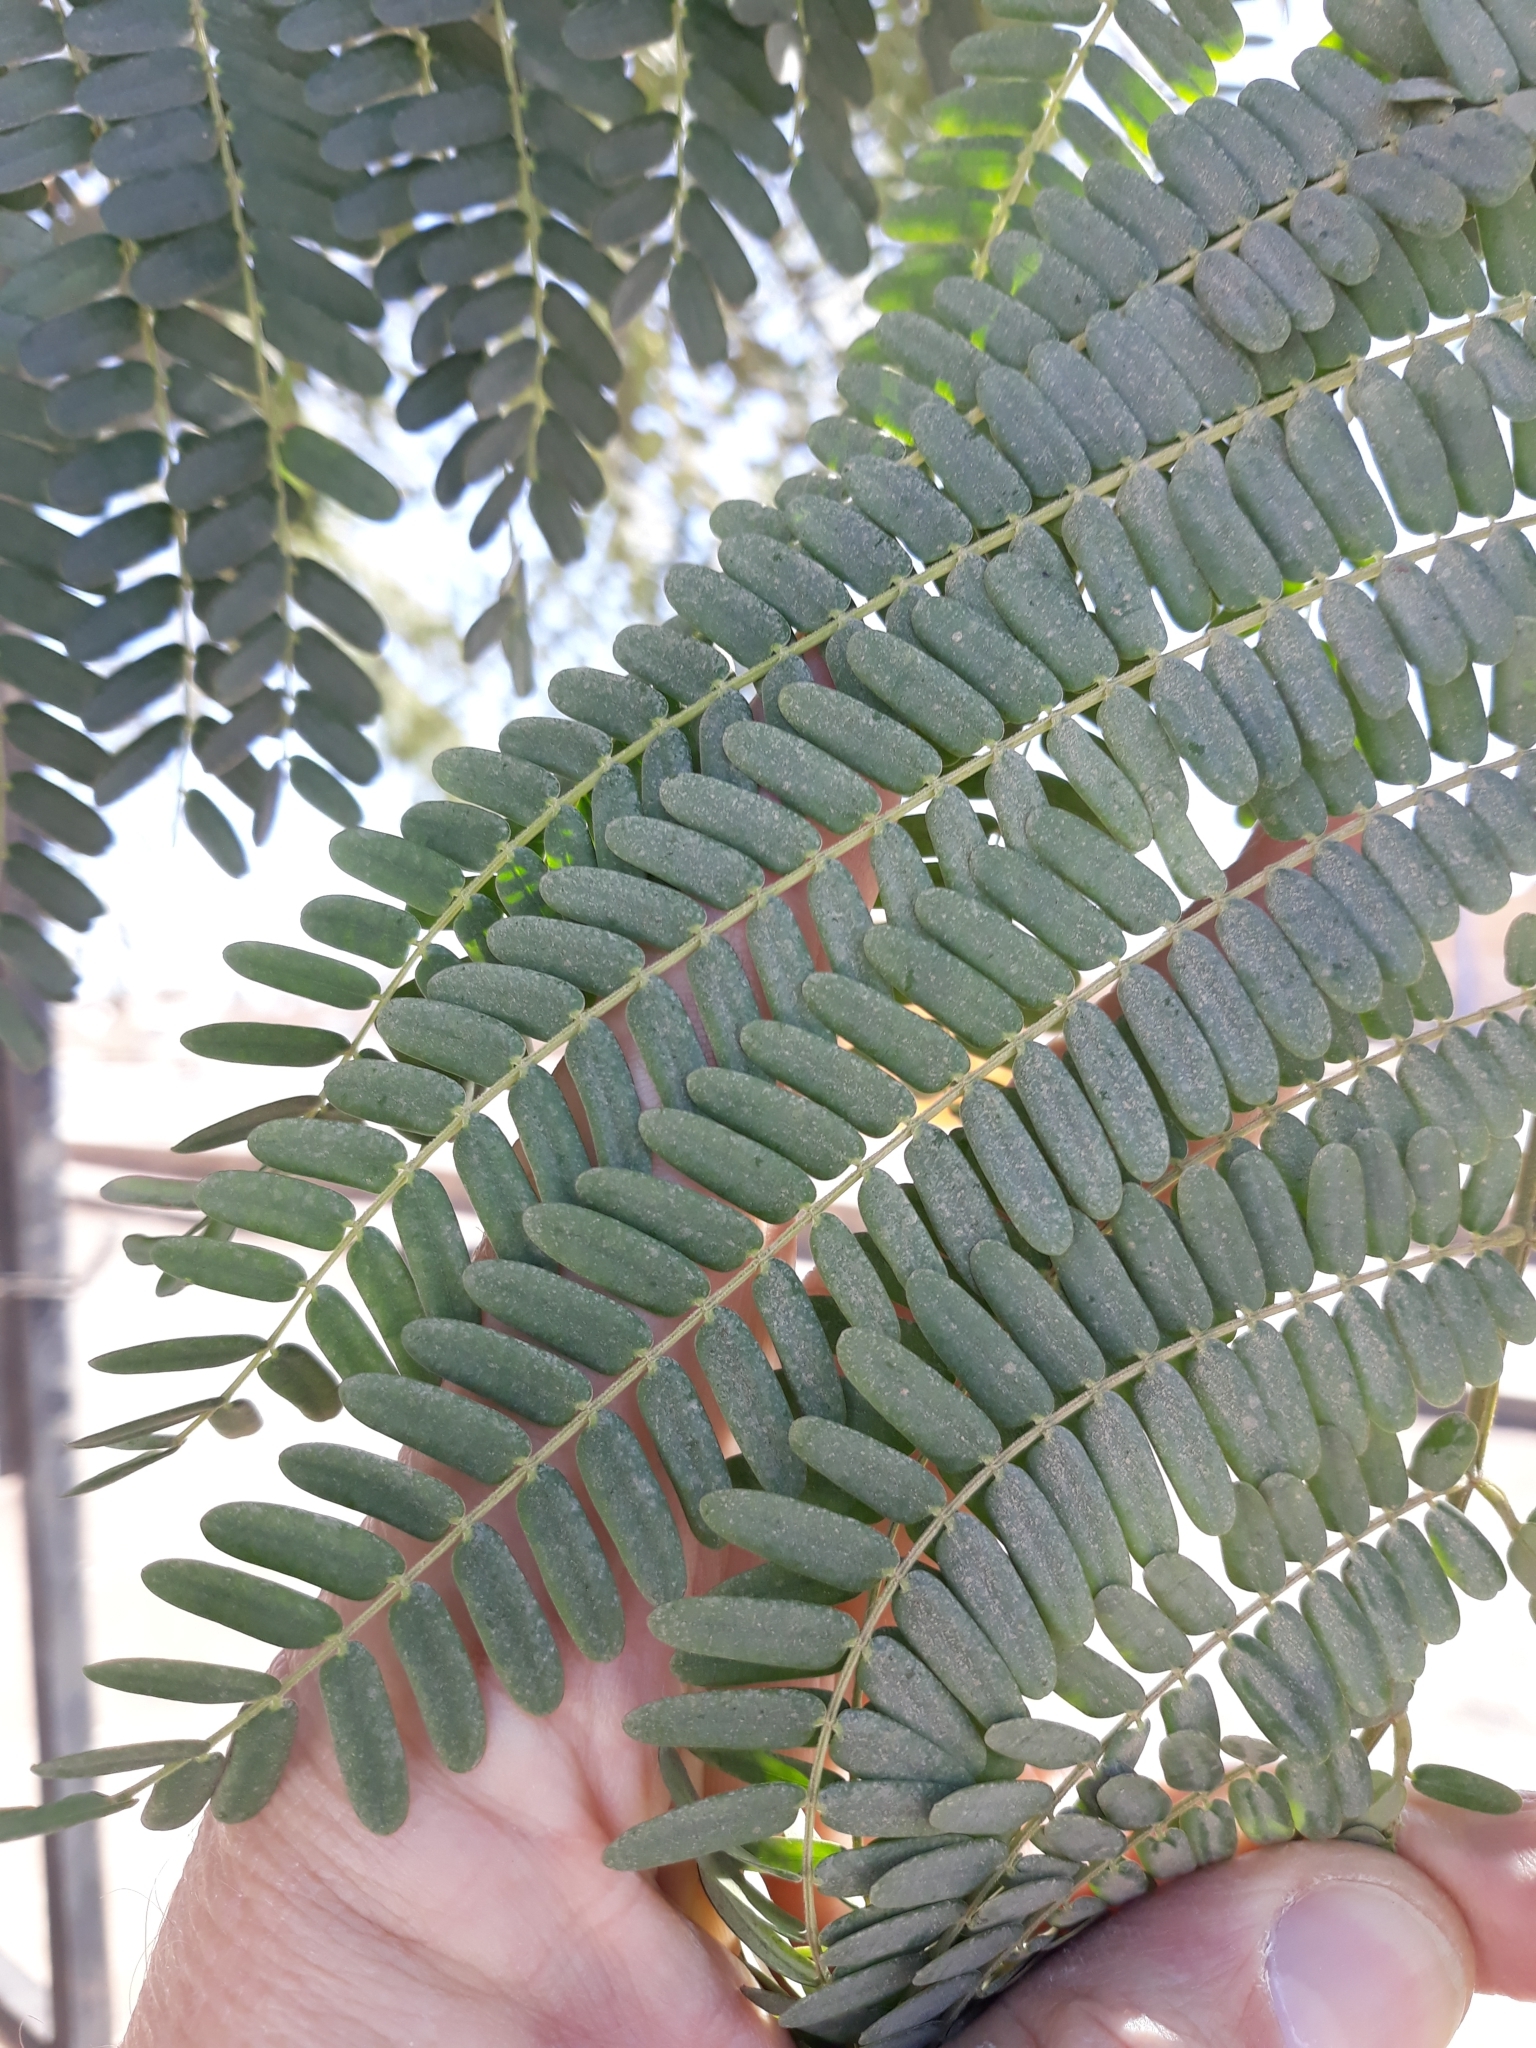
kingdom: Plantae
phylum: Tracheophyta
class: Magnoliopsida
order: Fabales
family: Fabaceae
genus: Tamarindus
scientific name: Tamarindus indica
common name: Tamarind
